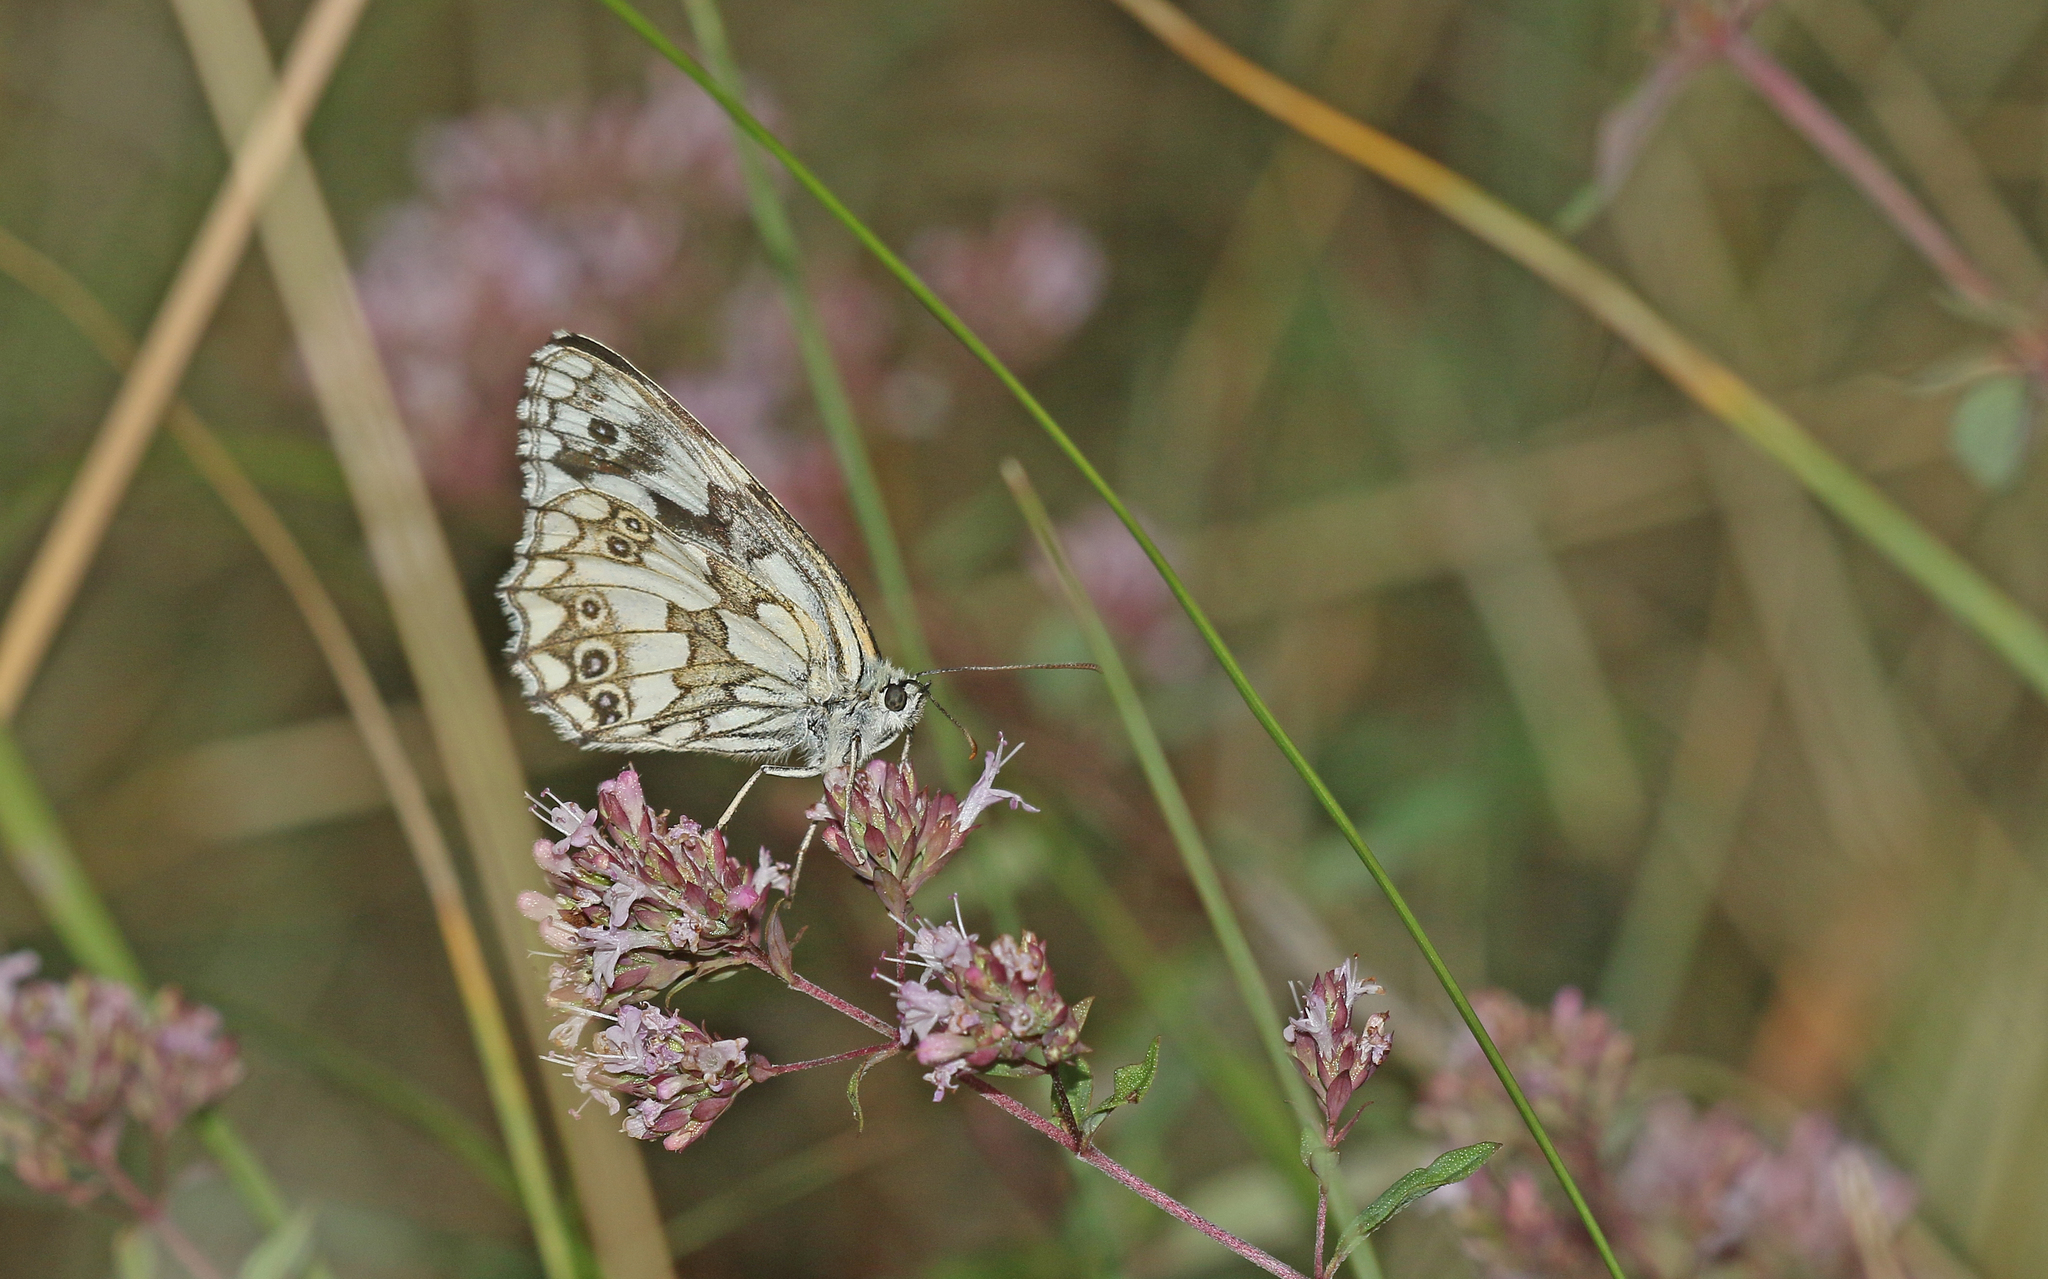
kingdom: Animalia
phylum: Arthropoda
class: Insecta
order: Lepidoptera
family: Nymphalidae
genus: Melanargia
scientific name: Melanargia galathea
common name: Marbled white
